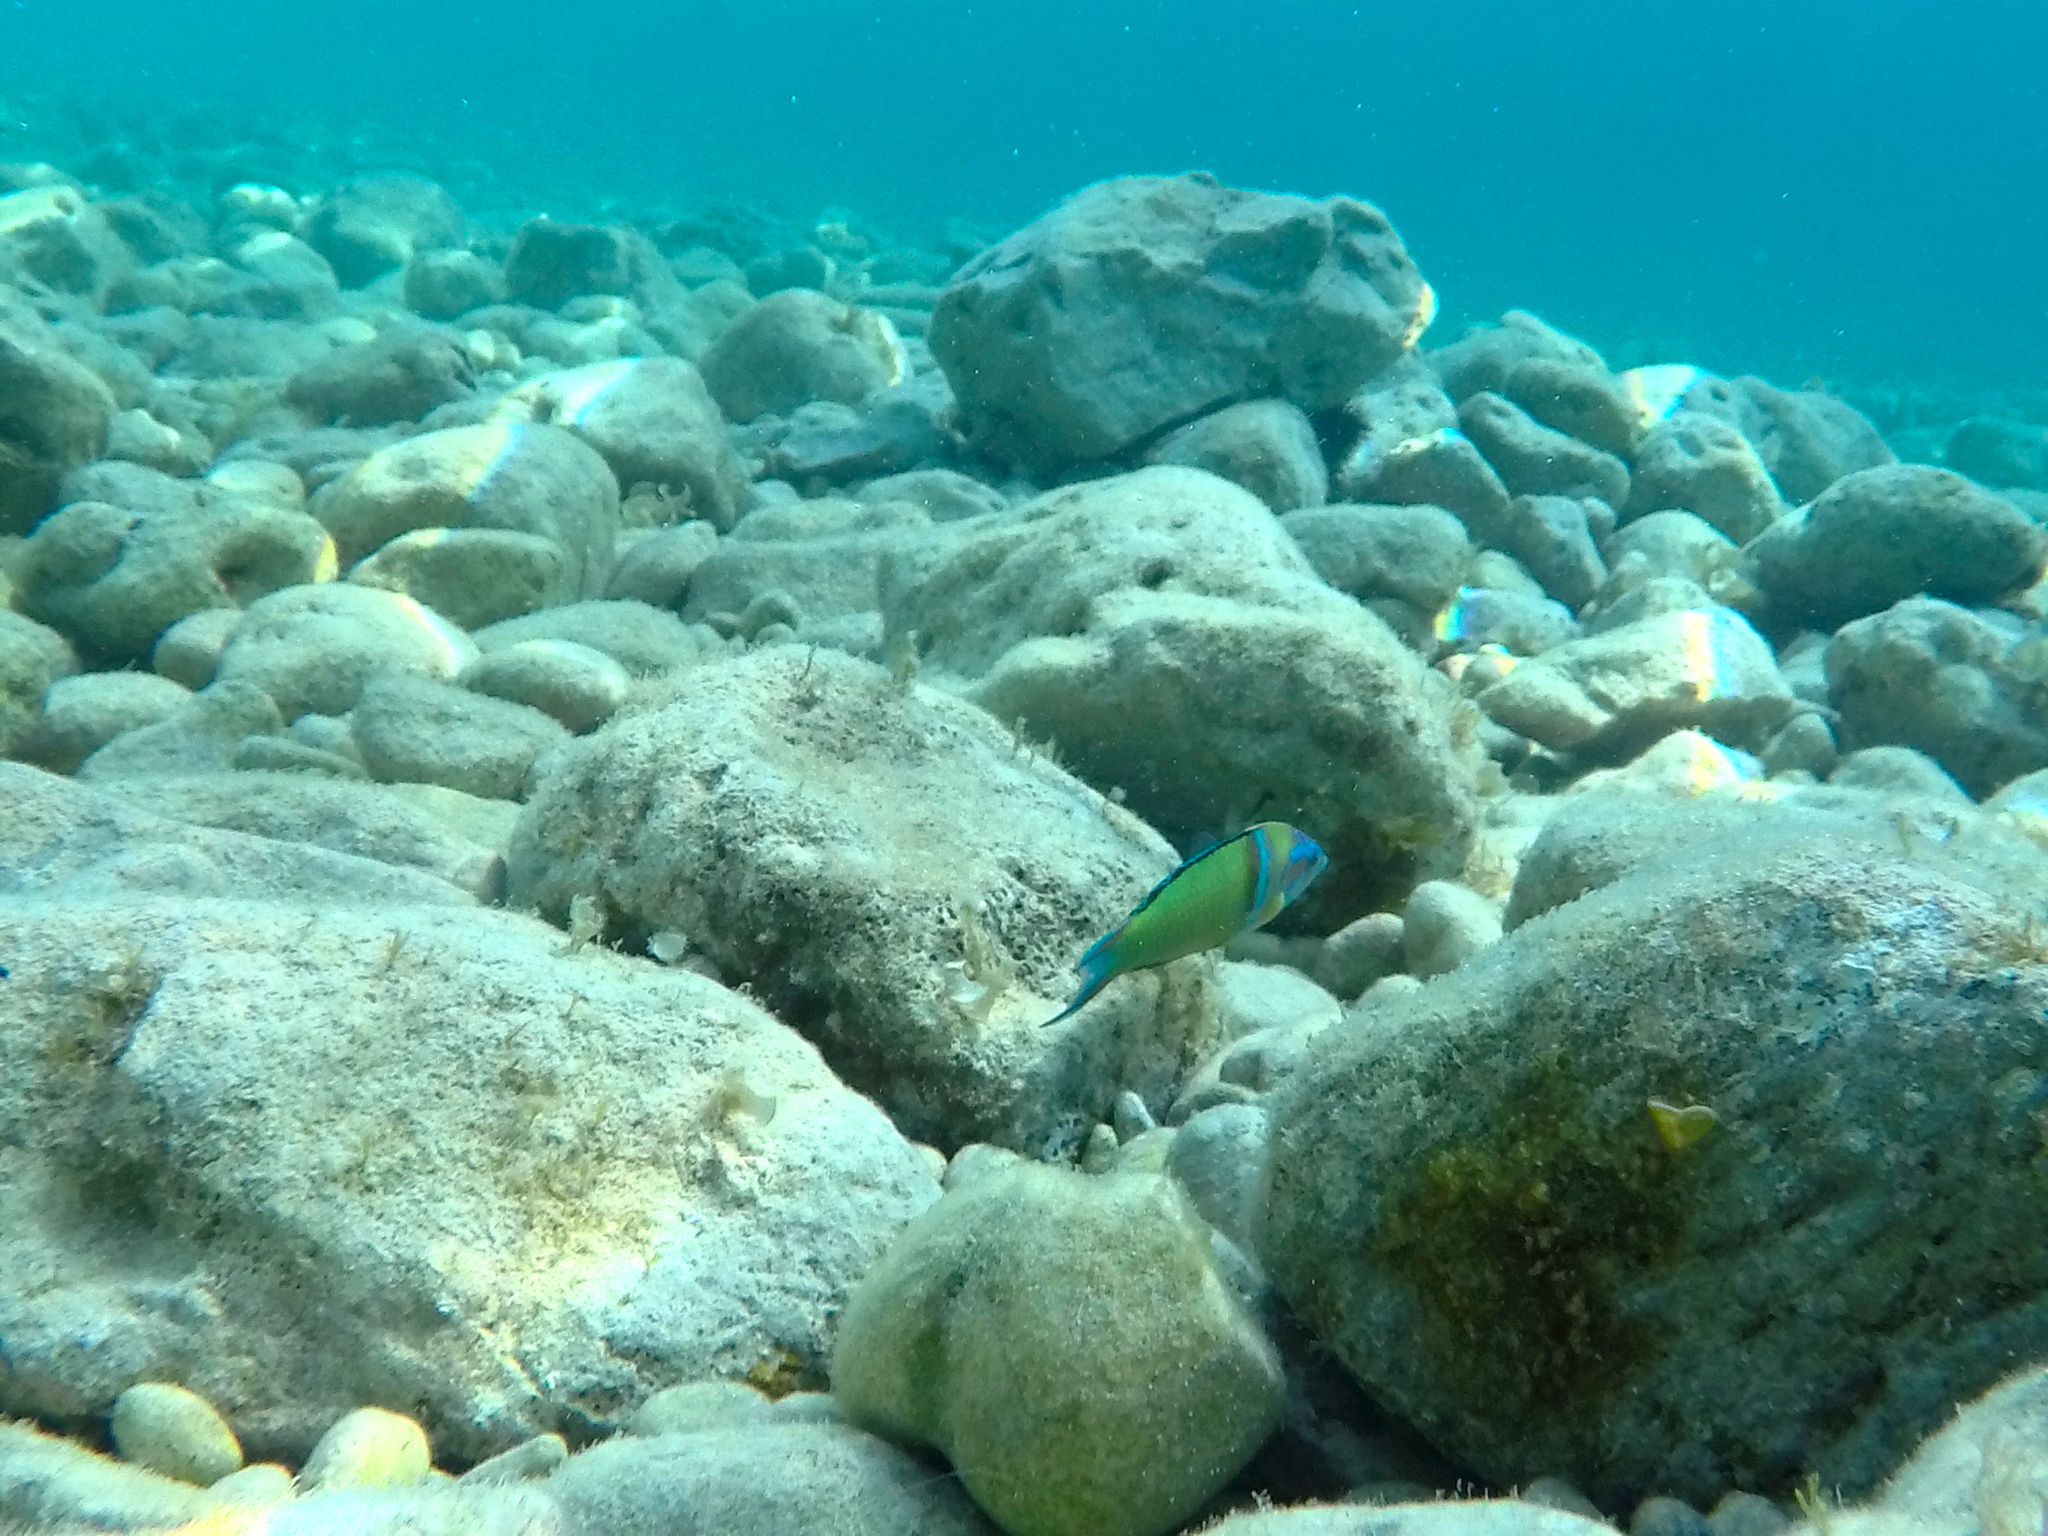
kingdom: Animalia
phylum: Chordata
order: Perciformes
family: Labridae
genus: Thalassoma
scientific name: Thalassoma pavo
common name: Ornate wrasse
